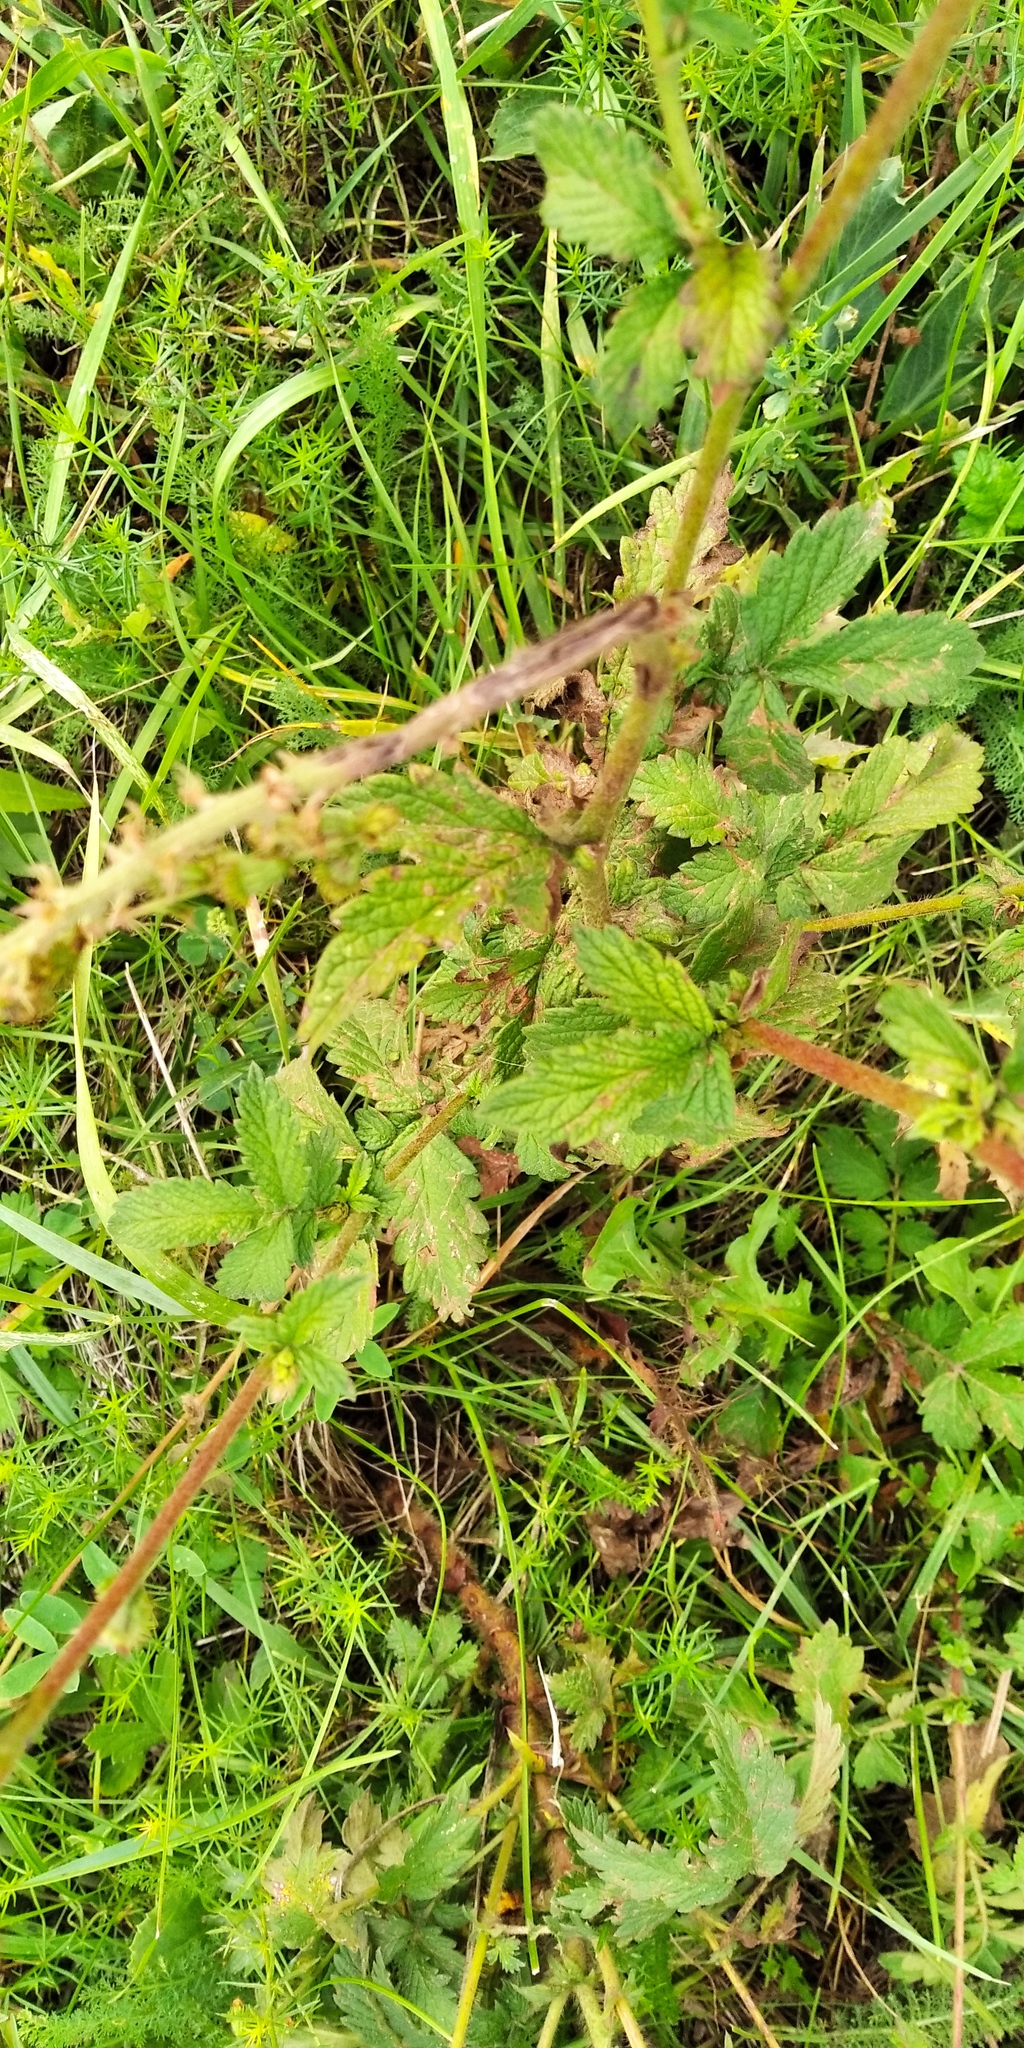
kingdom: Plantae
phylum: Tracheophyta
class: Magnoliopsida
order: Rosales
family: Rosaceae
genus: Agrimonia
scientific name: Agrimonia eupatoria
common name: Agrimony
